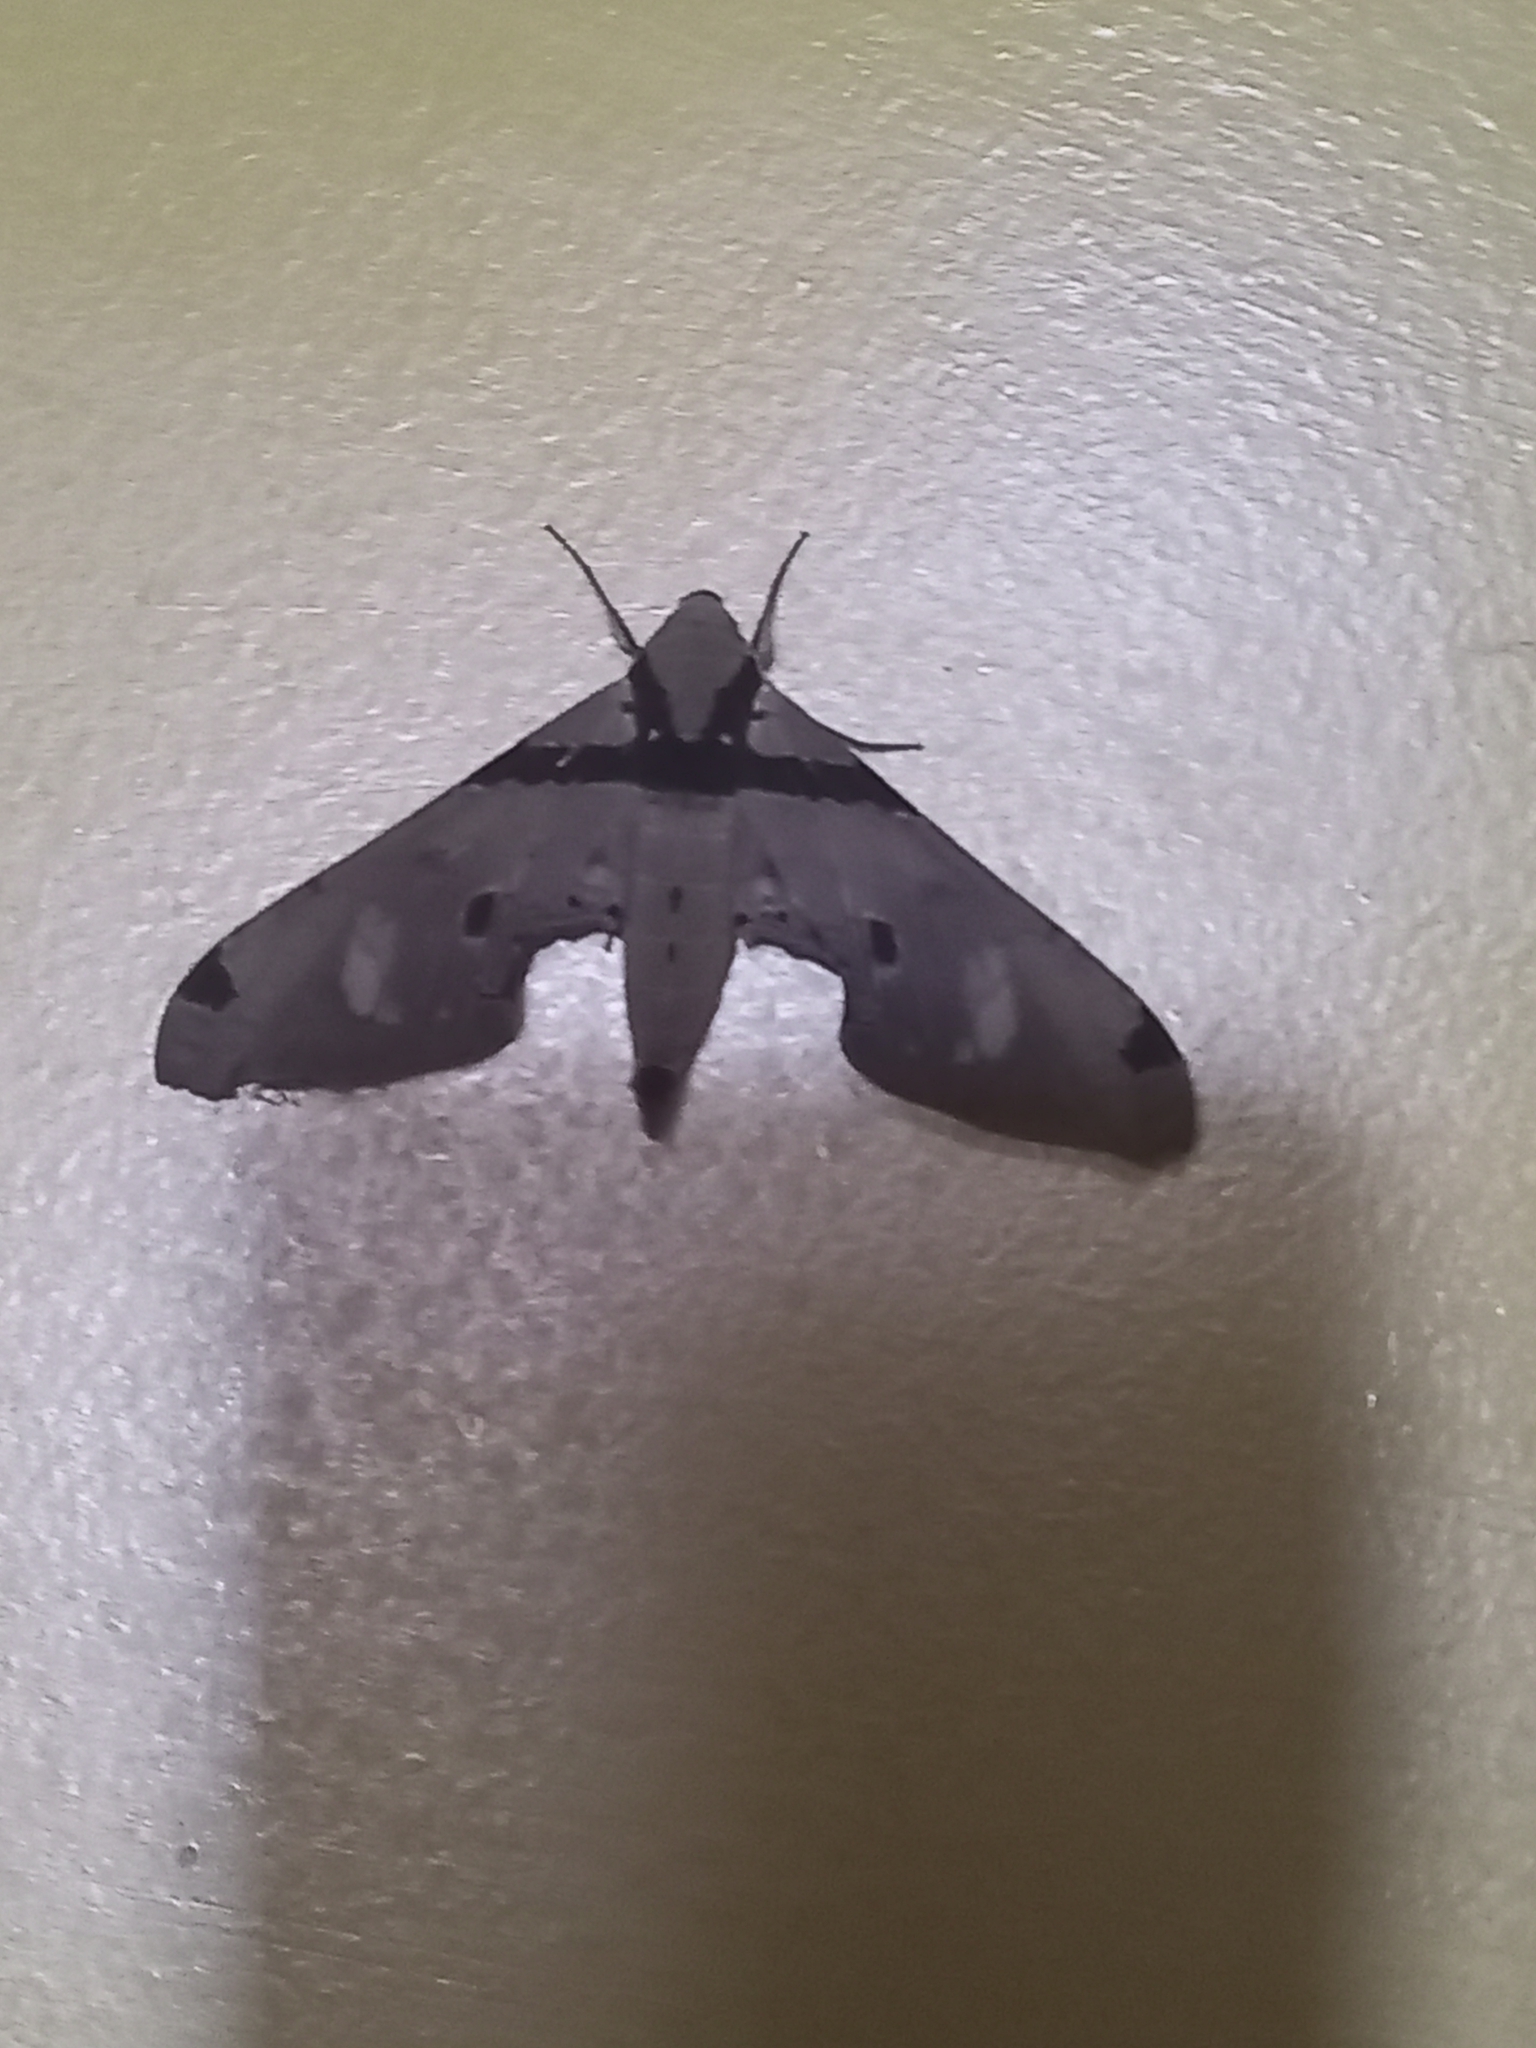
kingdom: Animalia
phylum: Arthropoda
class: Insecta
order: Lepidoptera
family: Sphingidae
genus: Adhemarius
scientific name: Adhemarius gagarini
